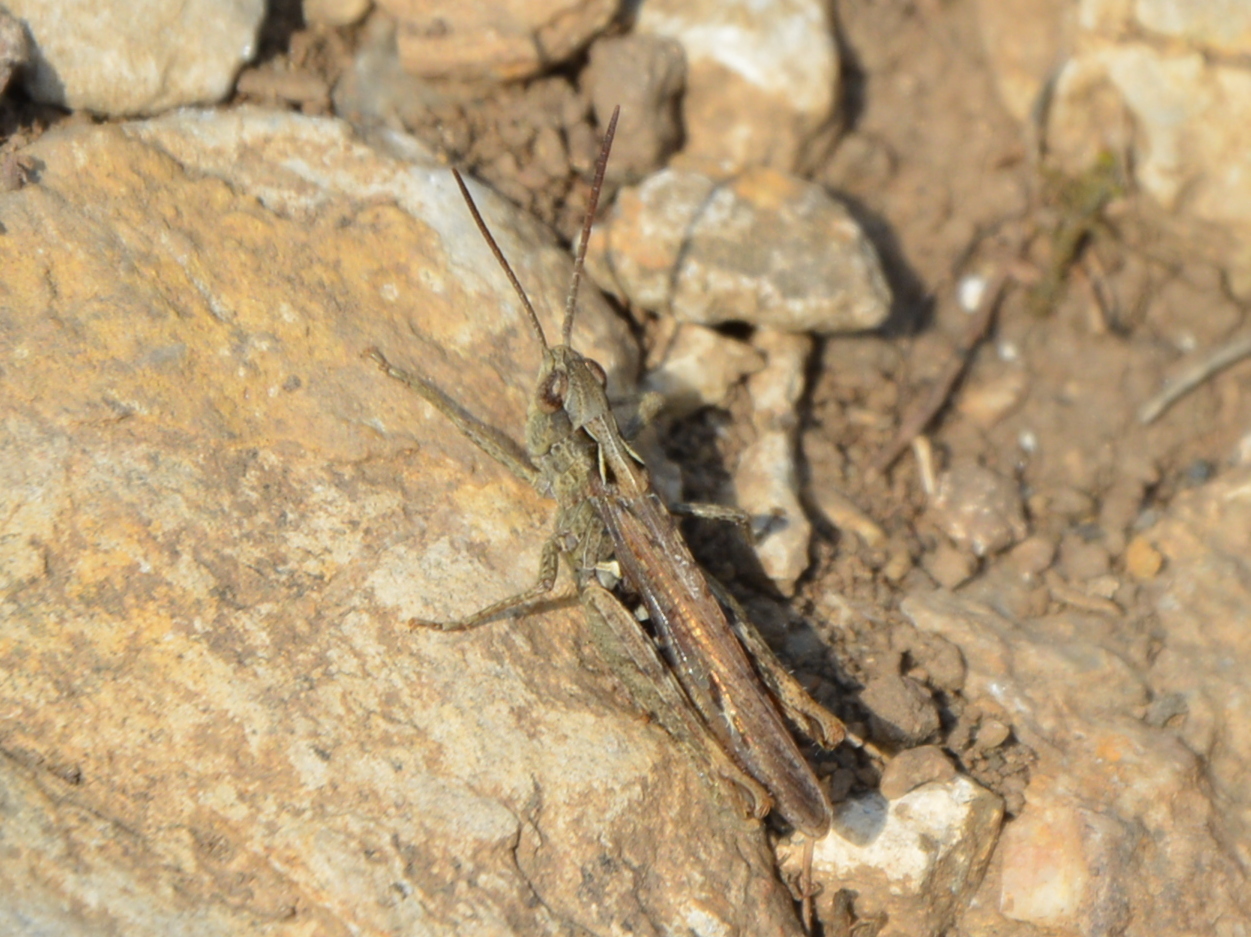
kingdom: Animalia
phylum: Arthropoda
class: Insecta
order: Orthoptera
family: Acrididae
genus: Chorthippus
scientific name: Chorthippus brunneus
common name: Field grasshopper
